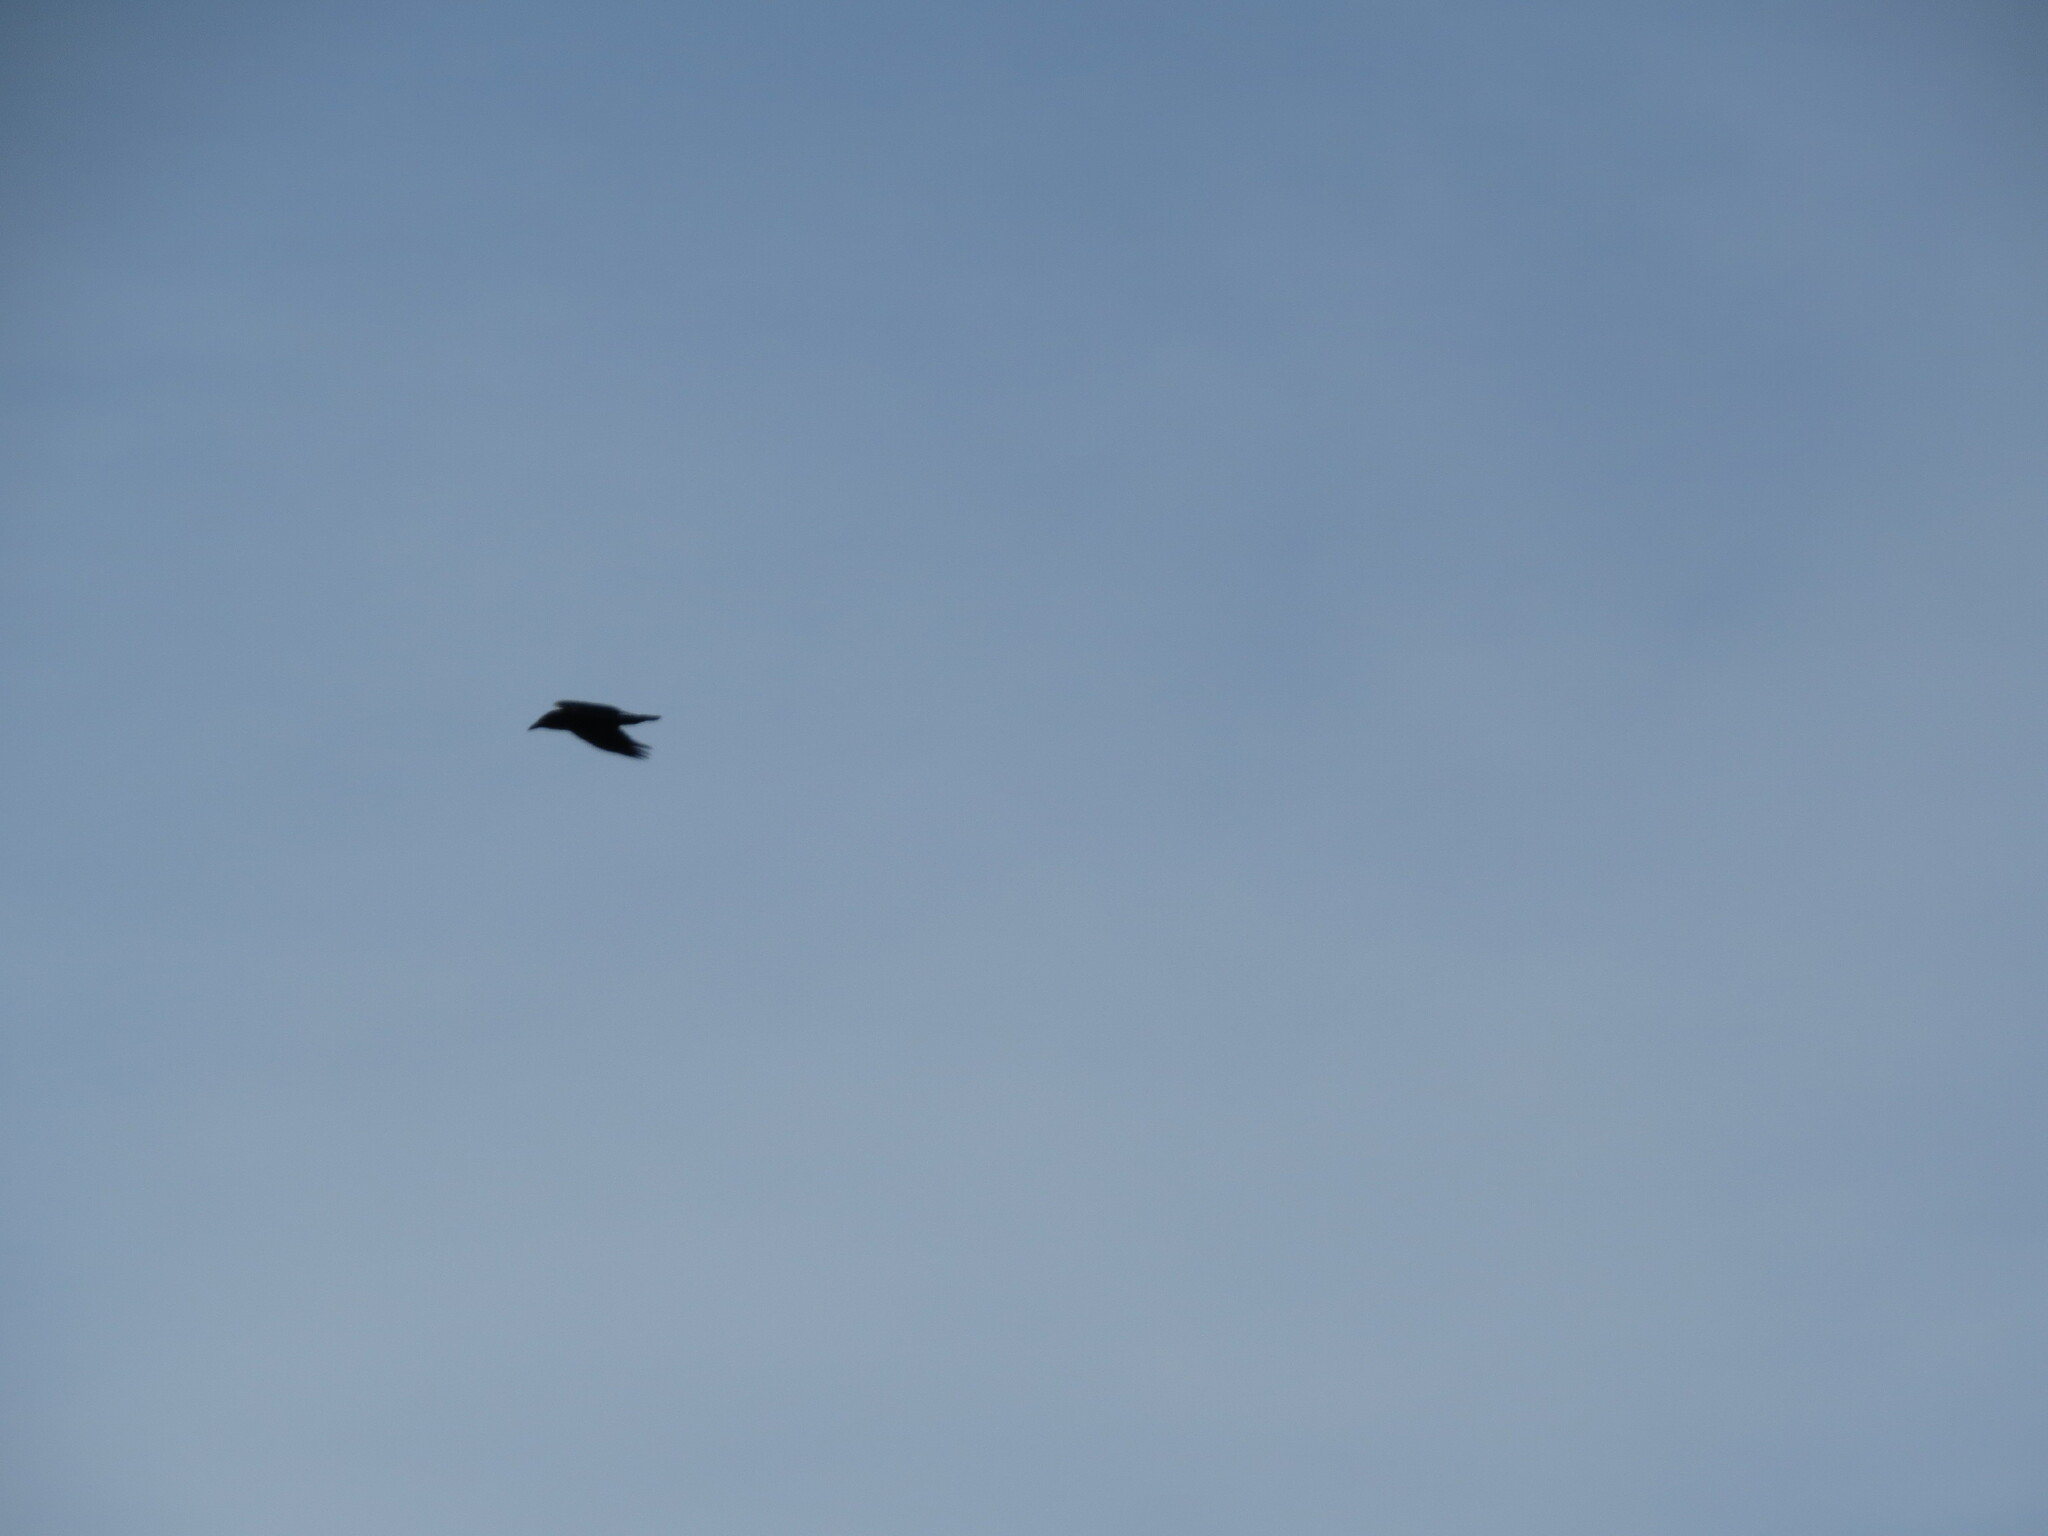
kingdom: Animalia
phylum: Chordata
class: Aves
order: Passeriformes
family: Corvidae
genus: Corvus
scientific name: Corvus corax
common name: Common raven
